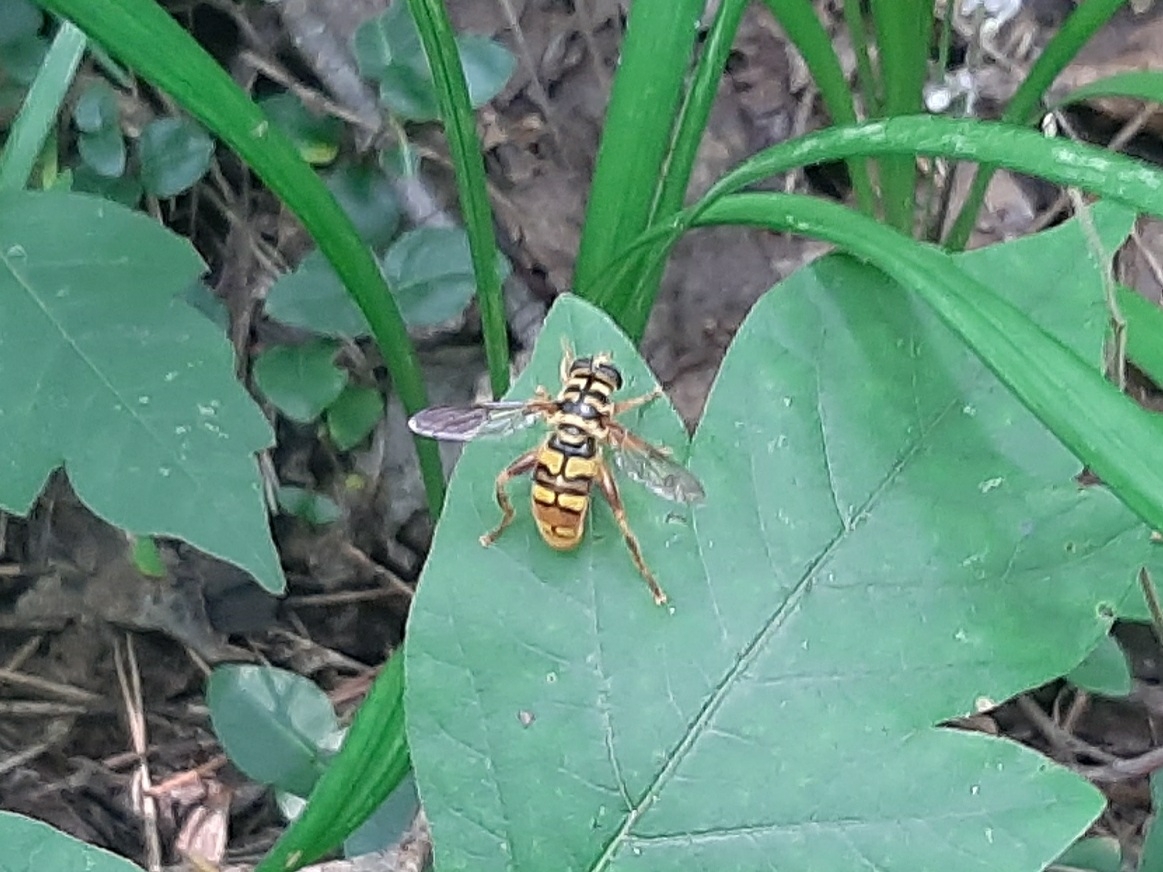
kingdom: Animalia
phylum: Arthropoda
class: Insecta
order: Diptera
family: Syrphidae
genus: Milesia
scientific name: Milesia virginiensis
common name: Virginia giant
